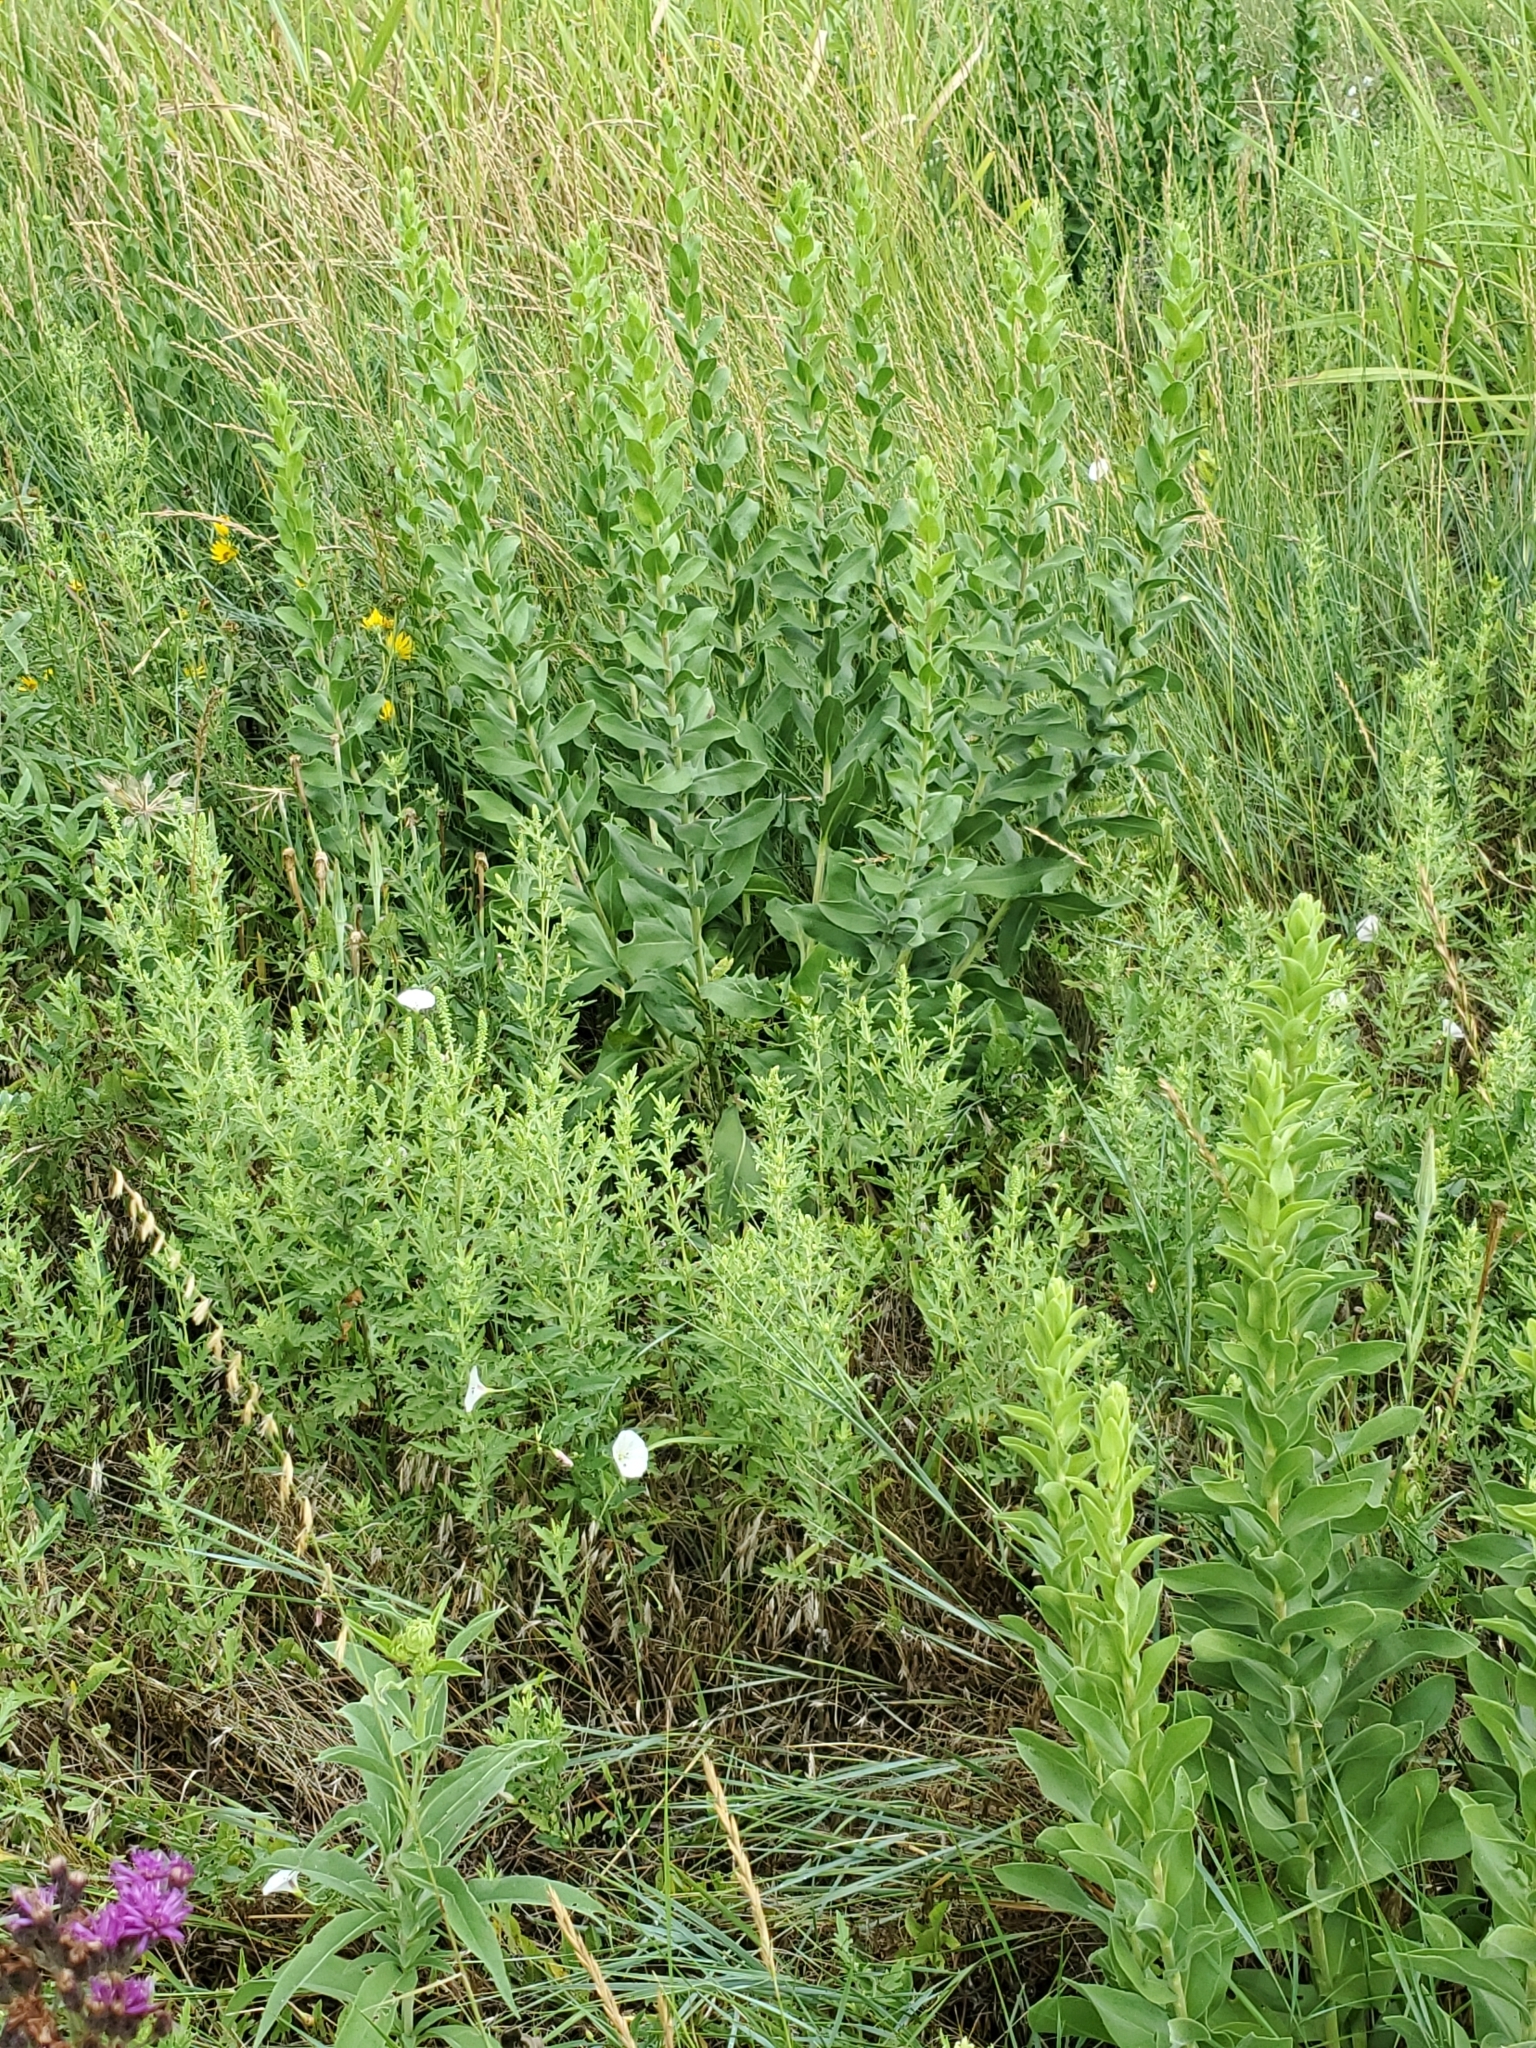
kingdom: Plantae
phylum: Tracheophyta
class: Magnoliopsida
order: Asterales
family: Asteraceae
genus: Solidago
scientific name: Solidago rigida
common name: Rigid goldenrod
